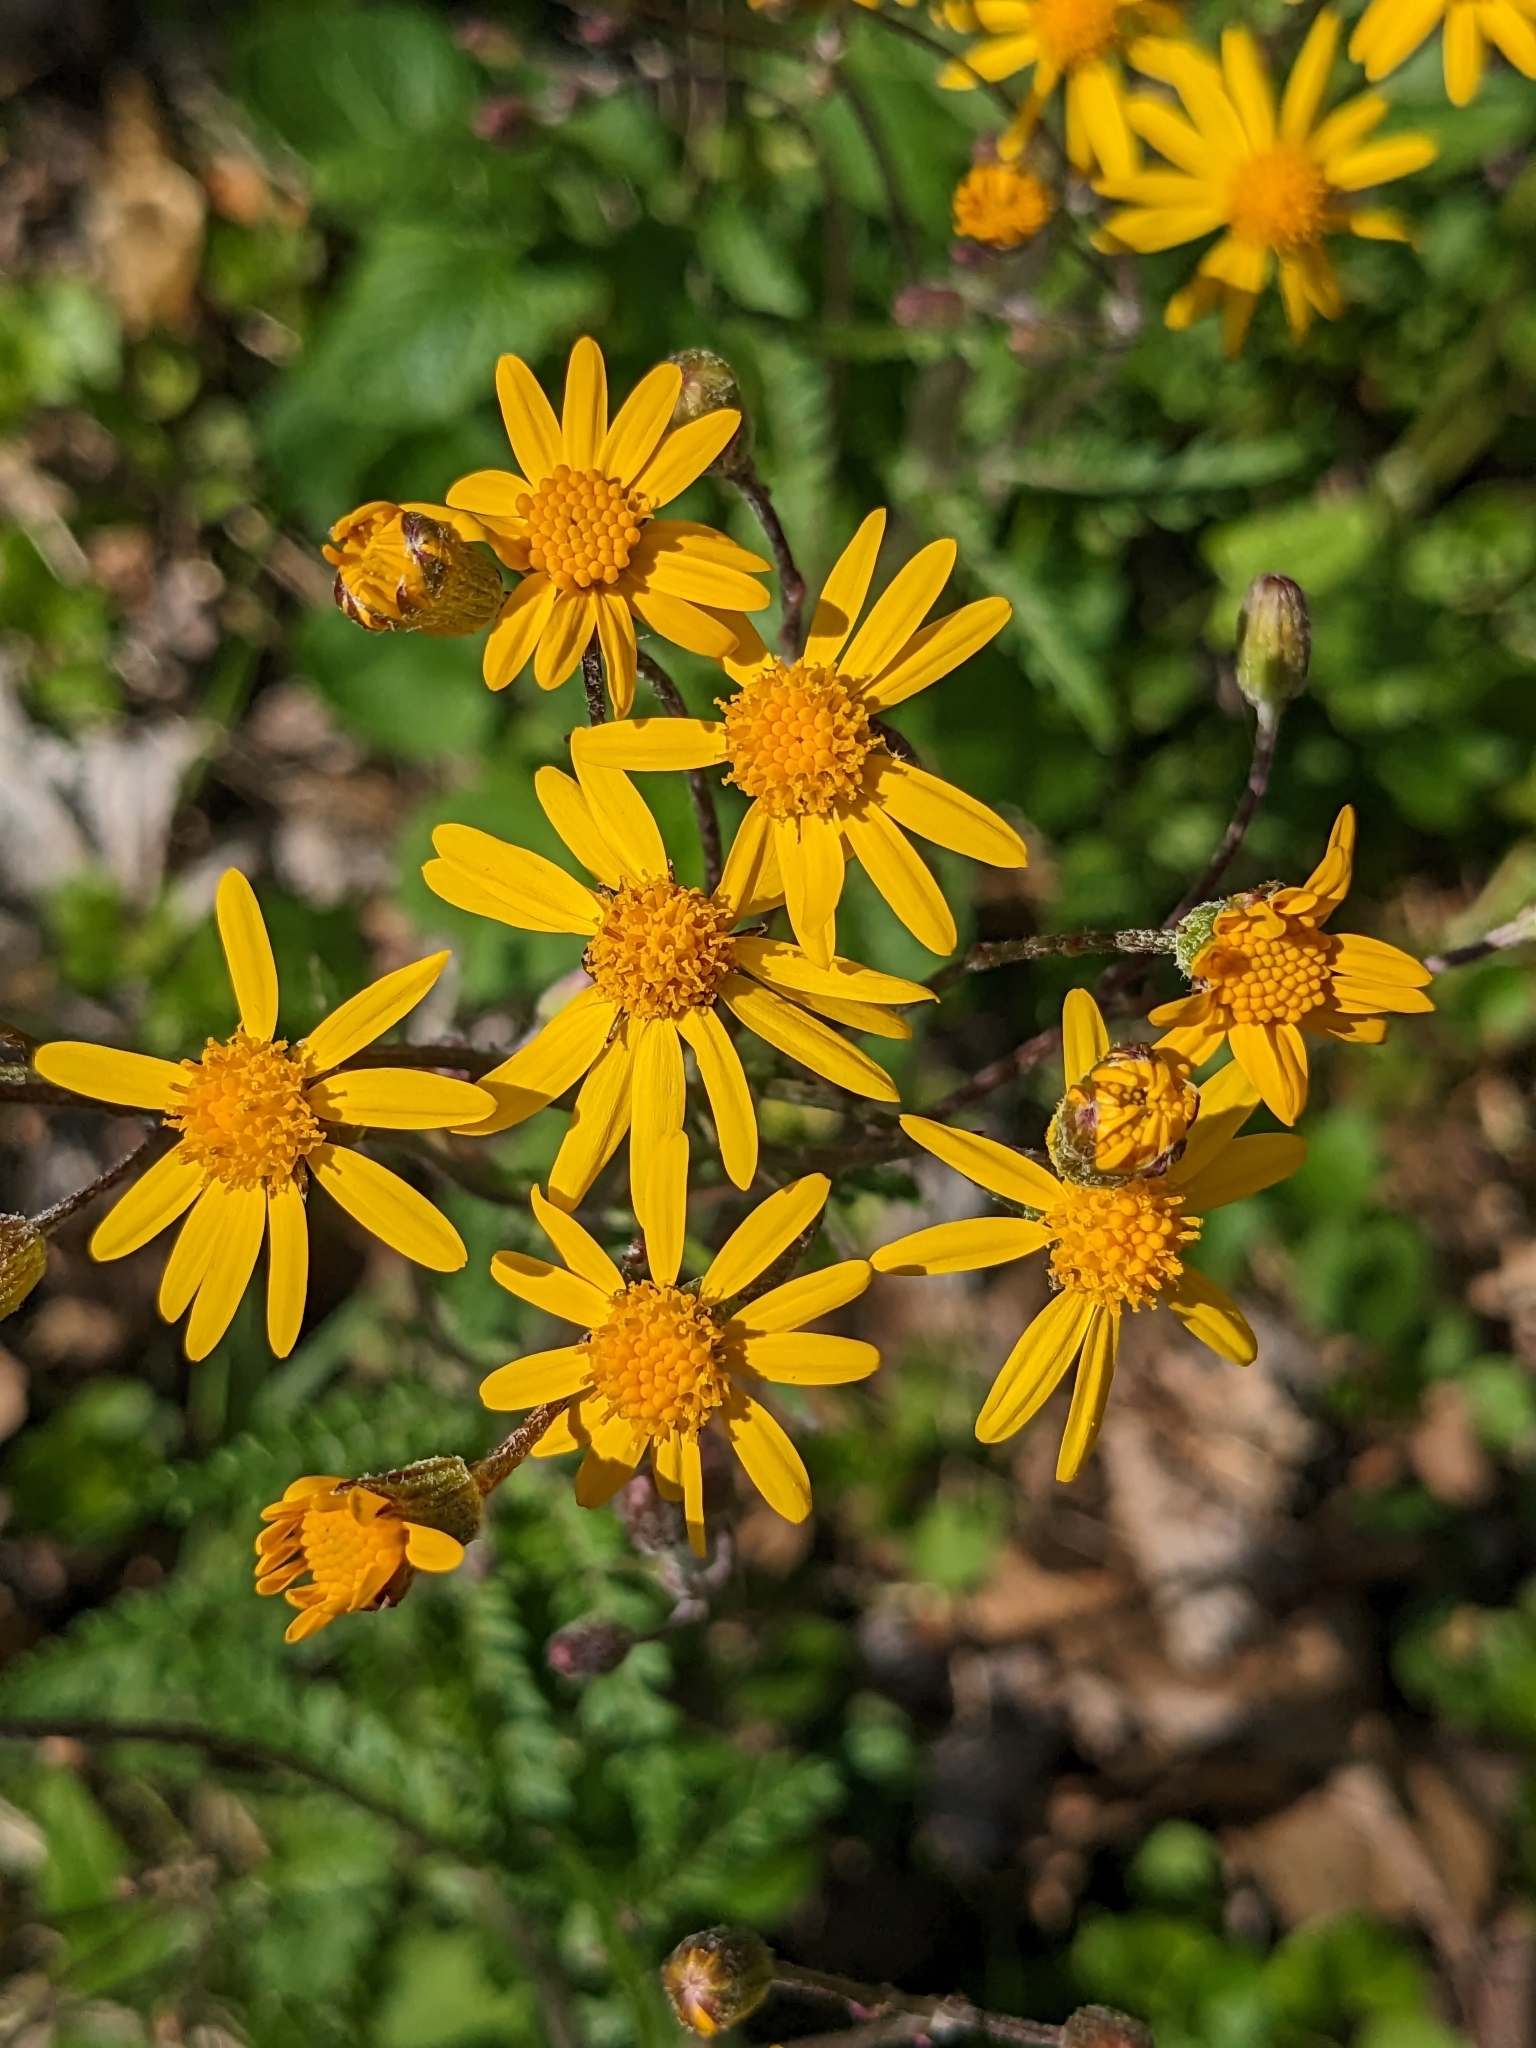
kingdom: Plantae
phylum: Tracheophyta
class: Magnoliopsida
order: Asterales
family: Asteraceae
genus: Packera
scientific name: Packera aurea
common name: Golden groundsel
